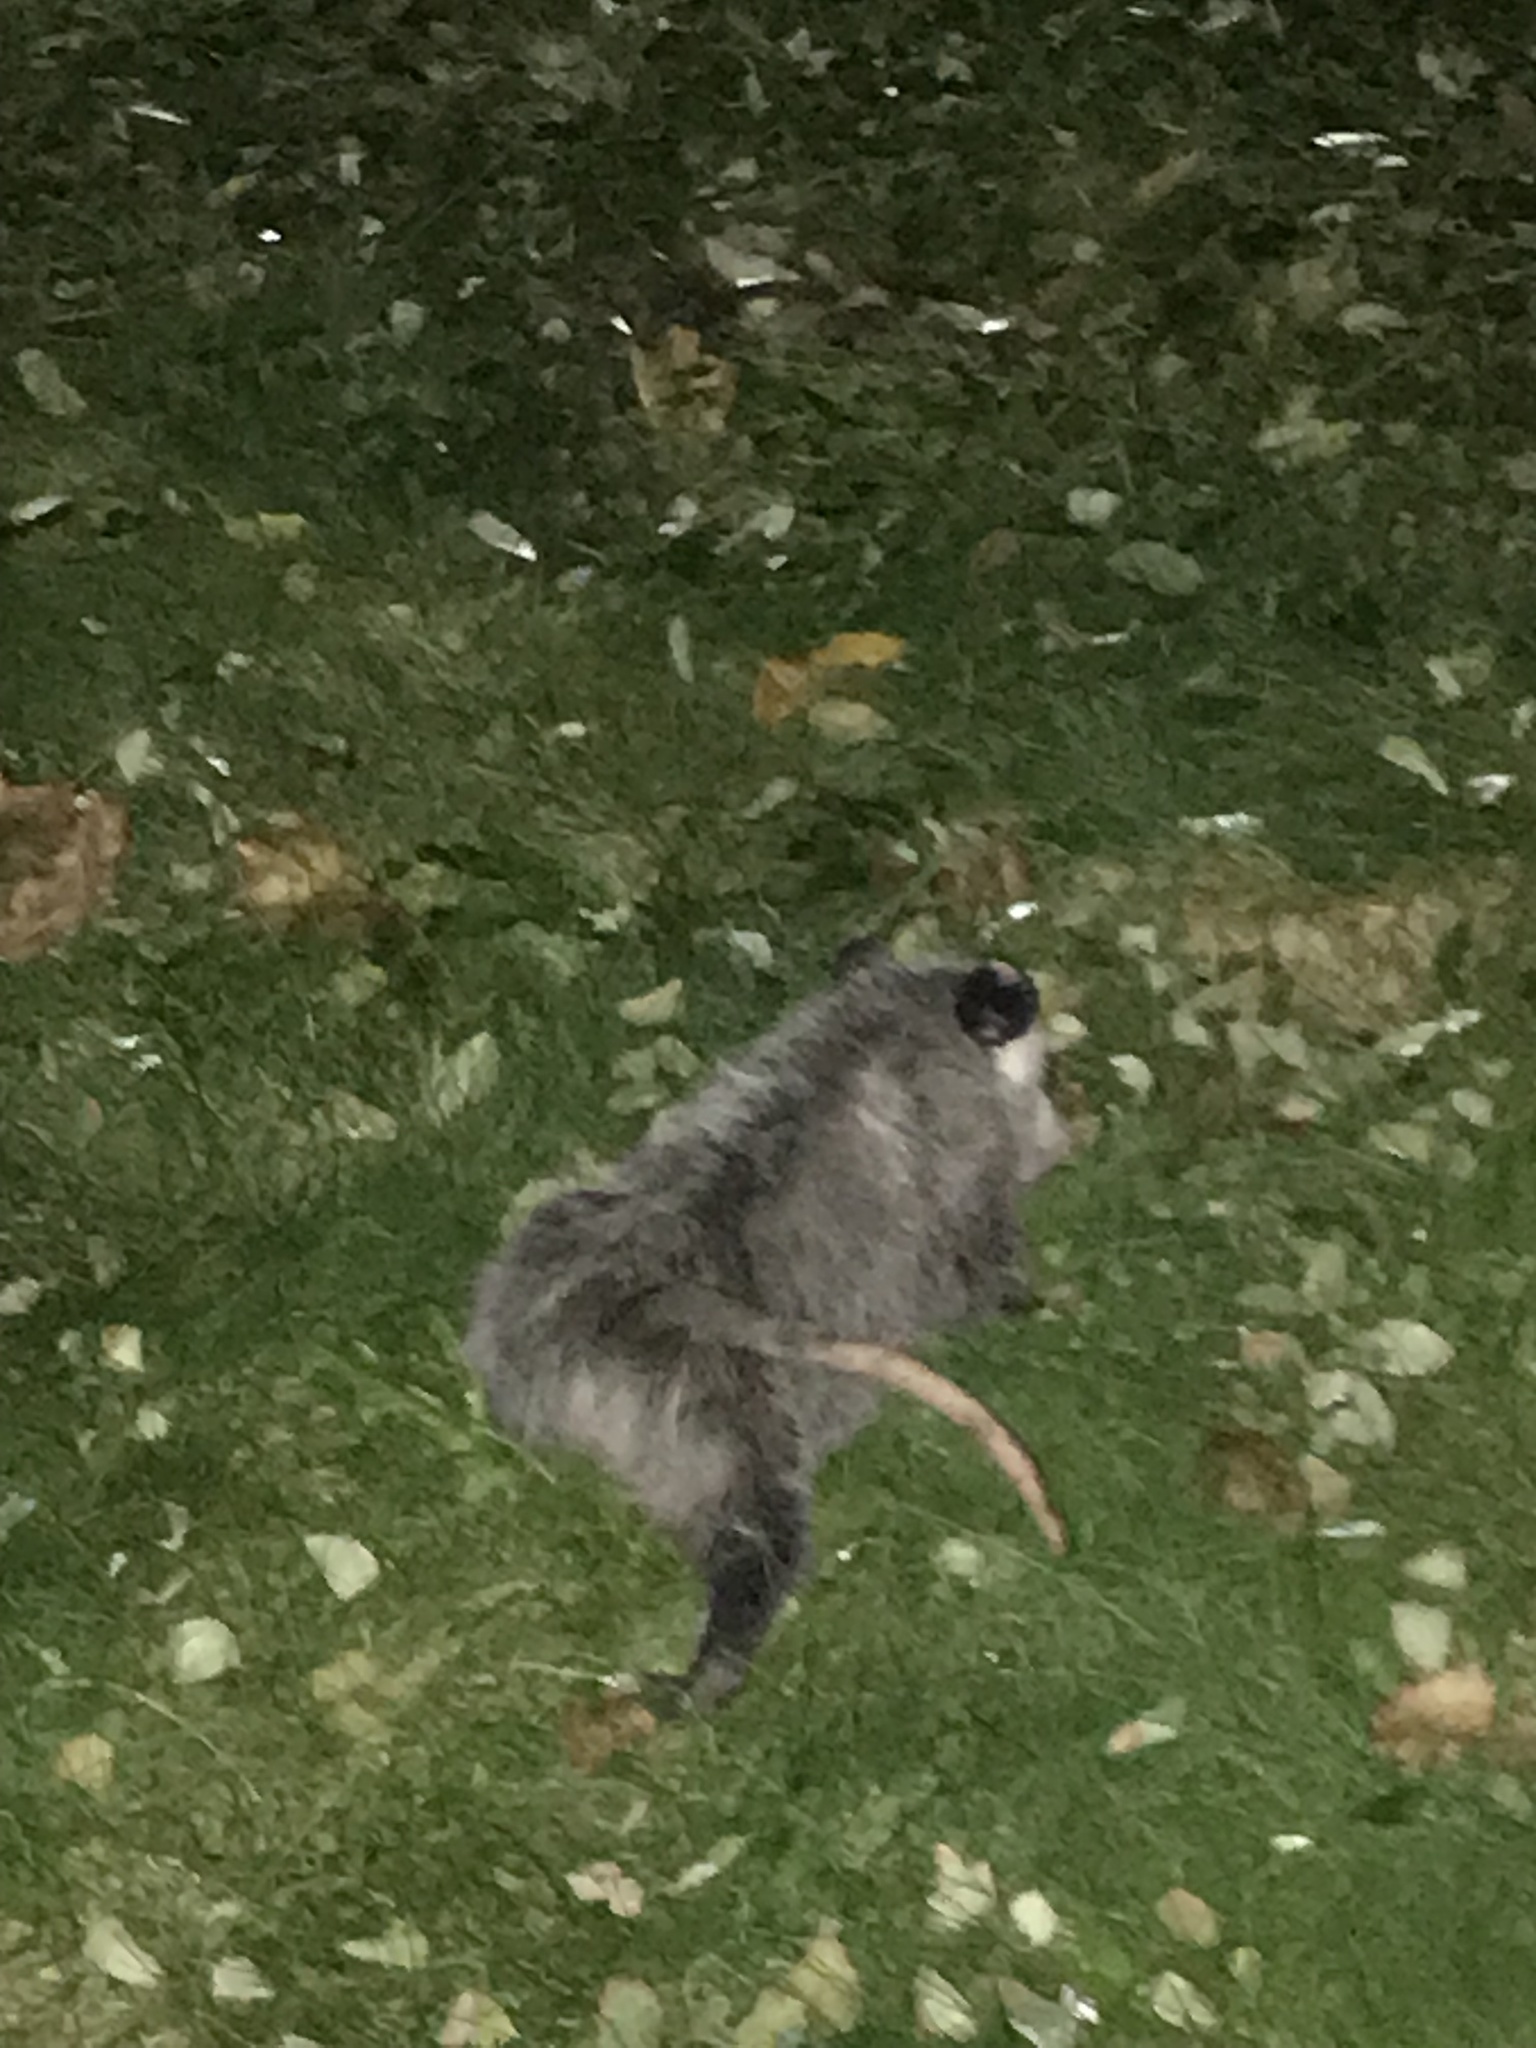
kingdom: Animalia
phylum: Chordata
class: Mammalia
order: Didelphimorphia
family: Didelphidae
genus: Didelphis
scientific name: Didelphis virginiana
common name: Virginia opossum
